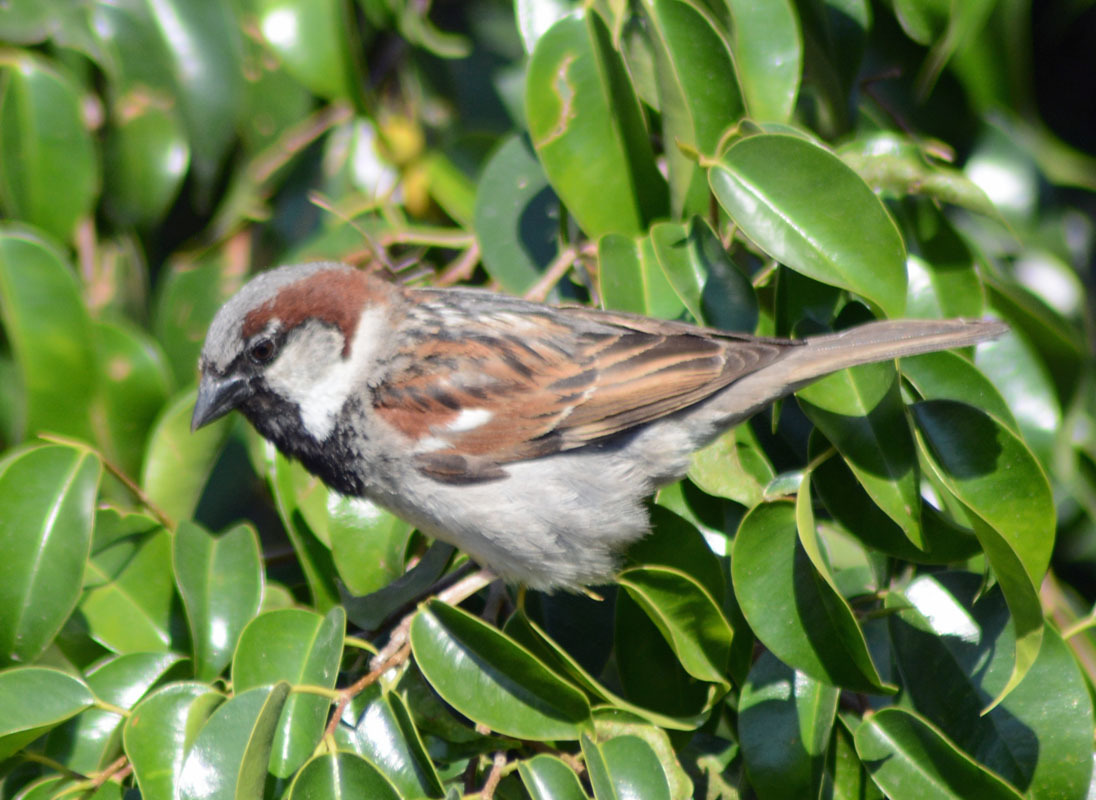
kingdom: Animalia
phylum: Chordata
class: Aves
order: Passeriformes
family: Passeridae
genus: Passer
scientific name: Passer domesticus
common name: House sparrow
